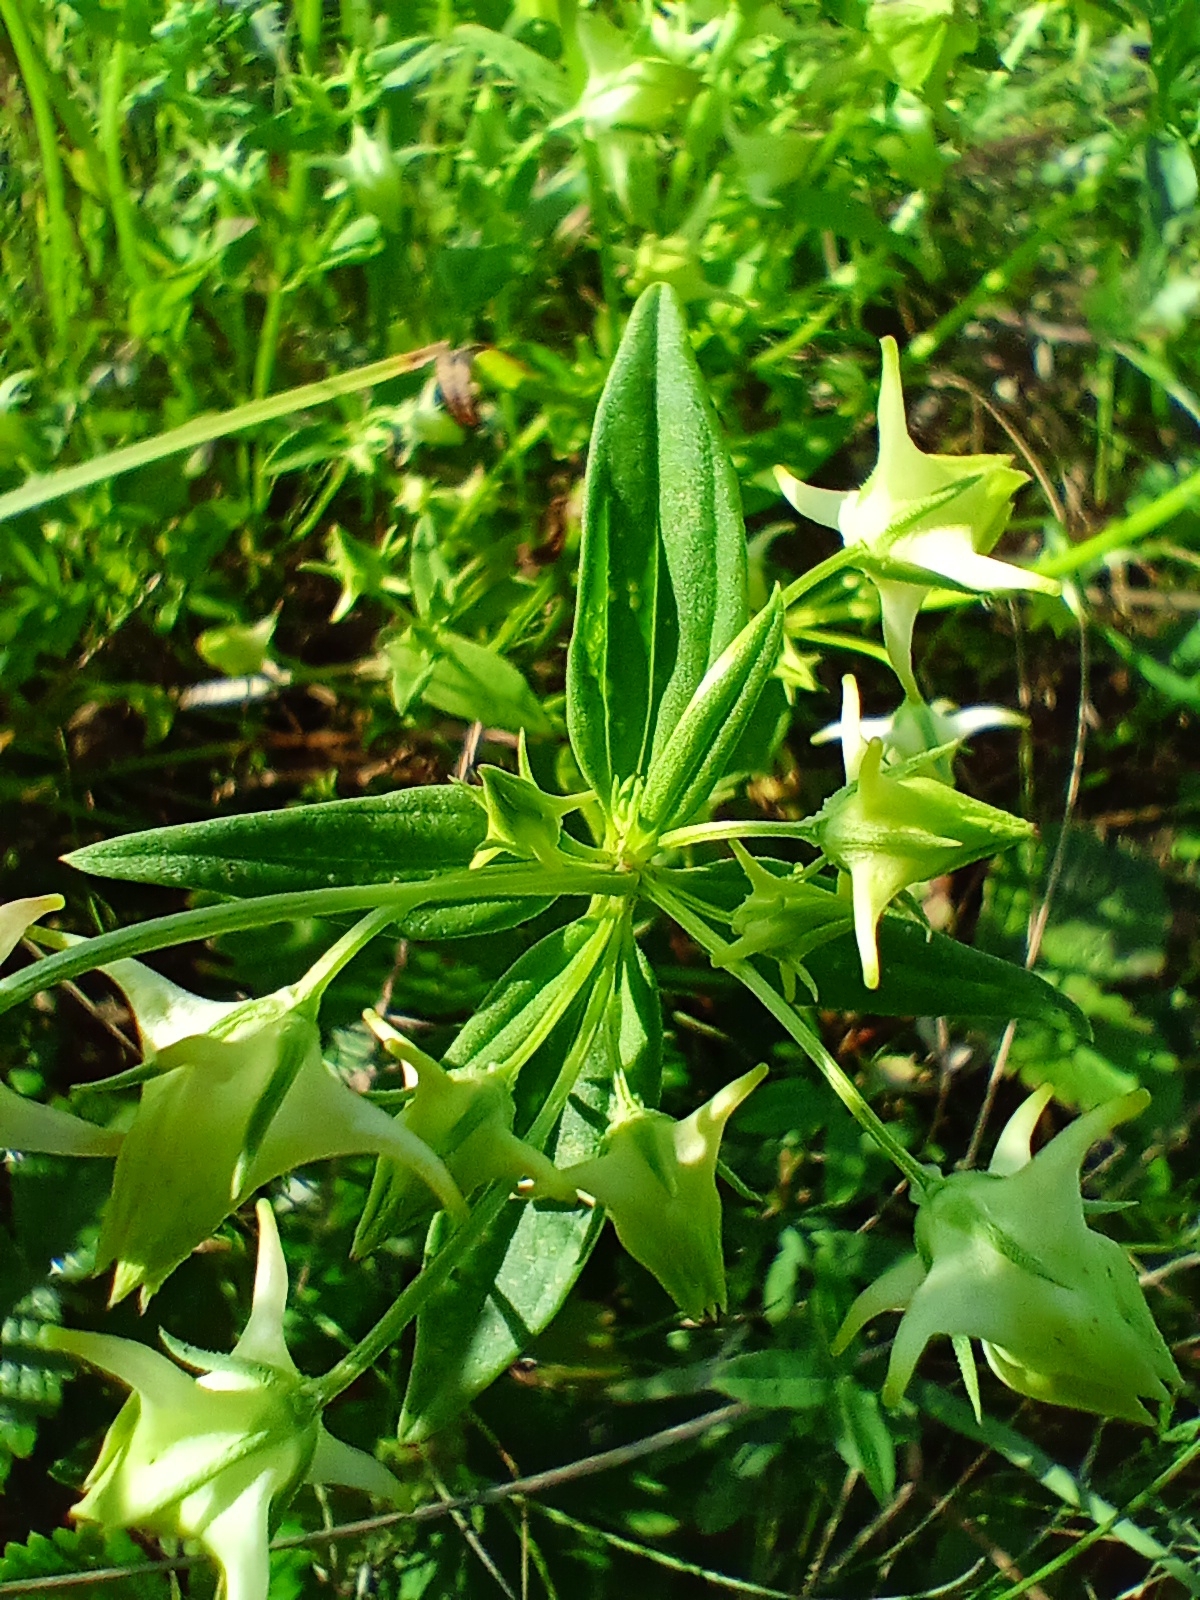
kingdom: Plantae
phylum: Tracheophyta
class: Magnoliopsida
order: Gentianales
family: Gentianaceae
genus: Halenia
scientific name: Halenia corniculata
